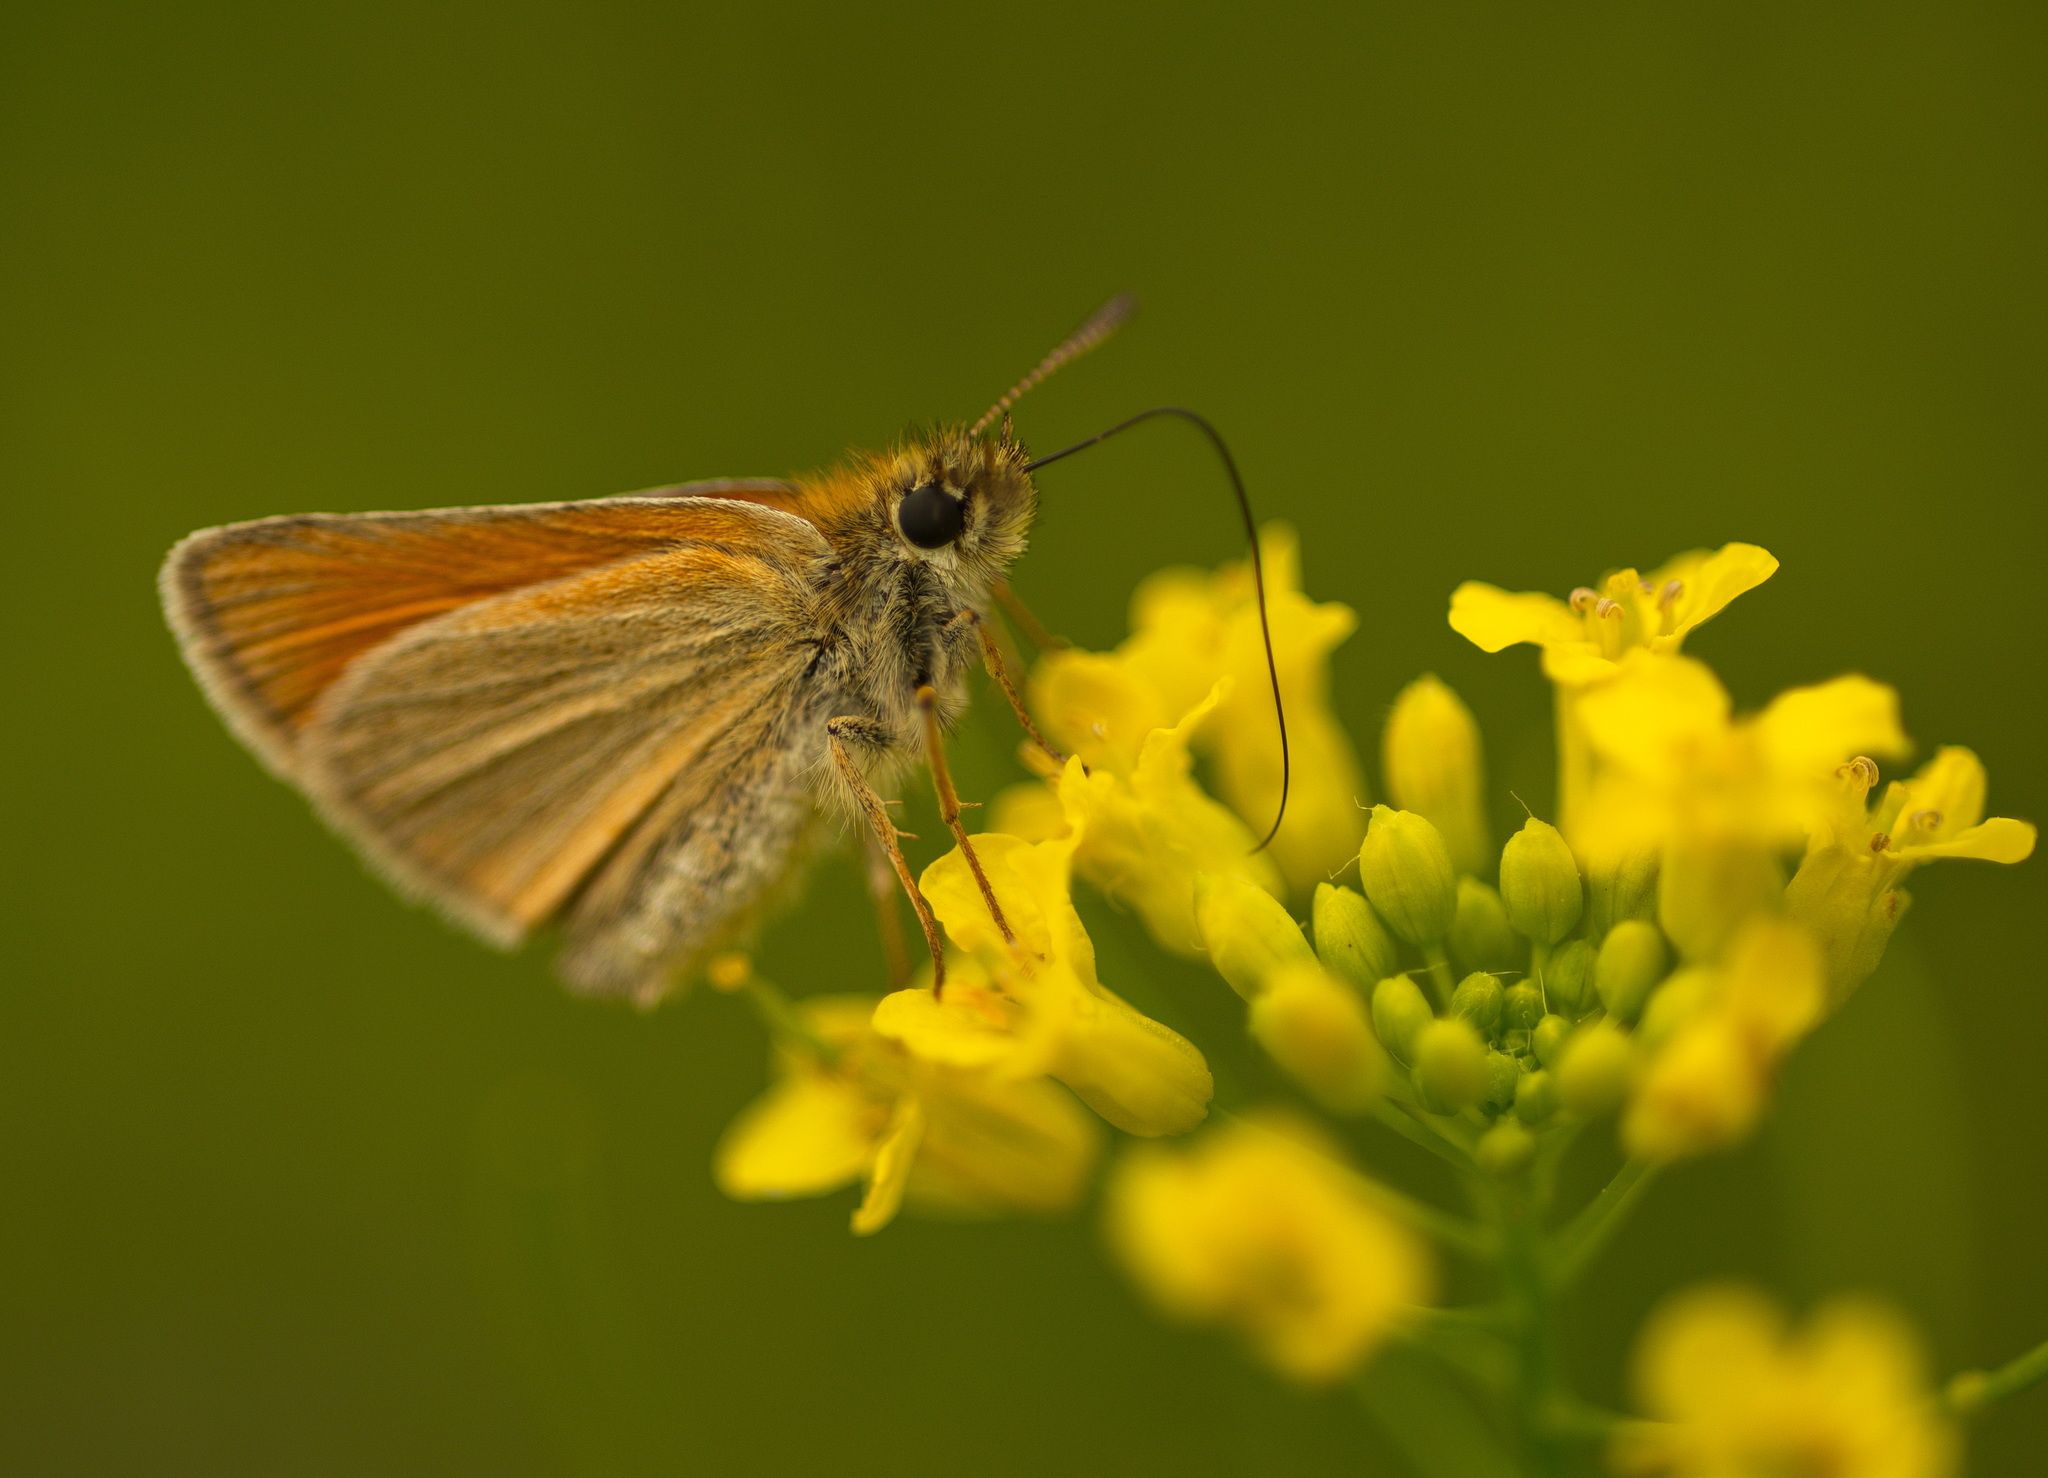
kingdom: Animalia
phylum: Arthropoda
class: Insecta
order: Lepidoptera
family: Hesperiidae
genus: Thymelicus
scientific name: Thymelicus lineola
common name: Essex skipper
